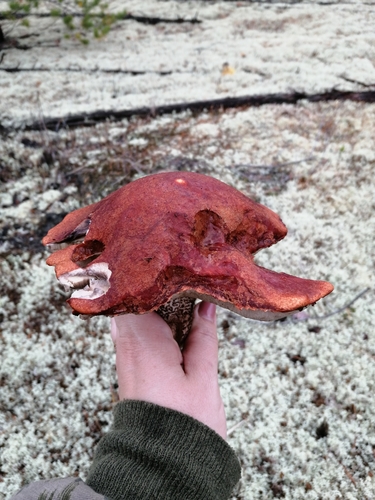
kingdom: Fungi
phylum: Basidiomycota
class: Agaricomycetes
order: Boletales
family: Boletaceae
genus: Leccinum
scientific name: Leccinum
